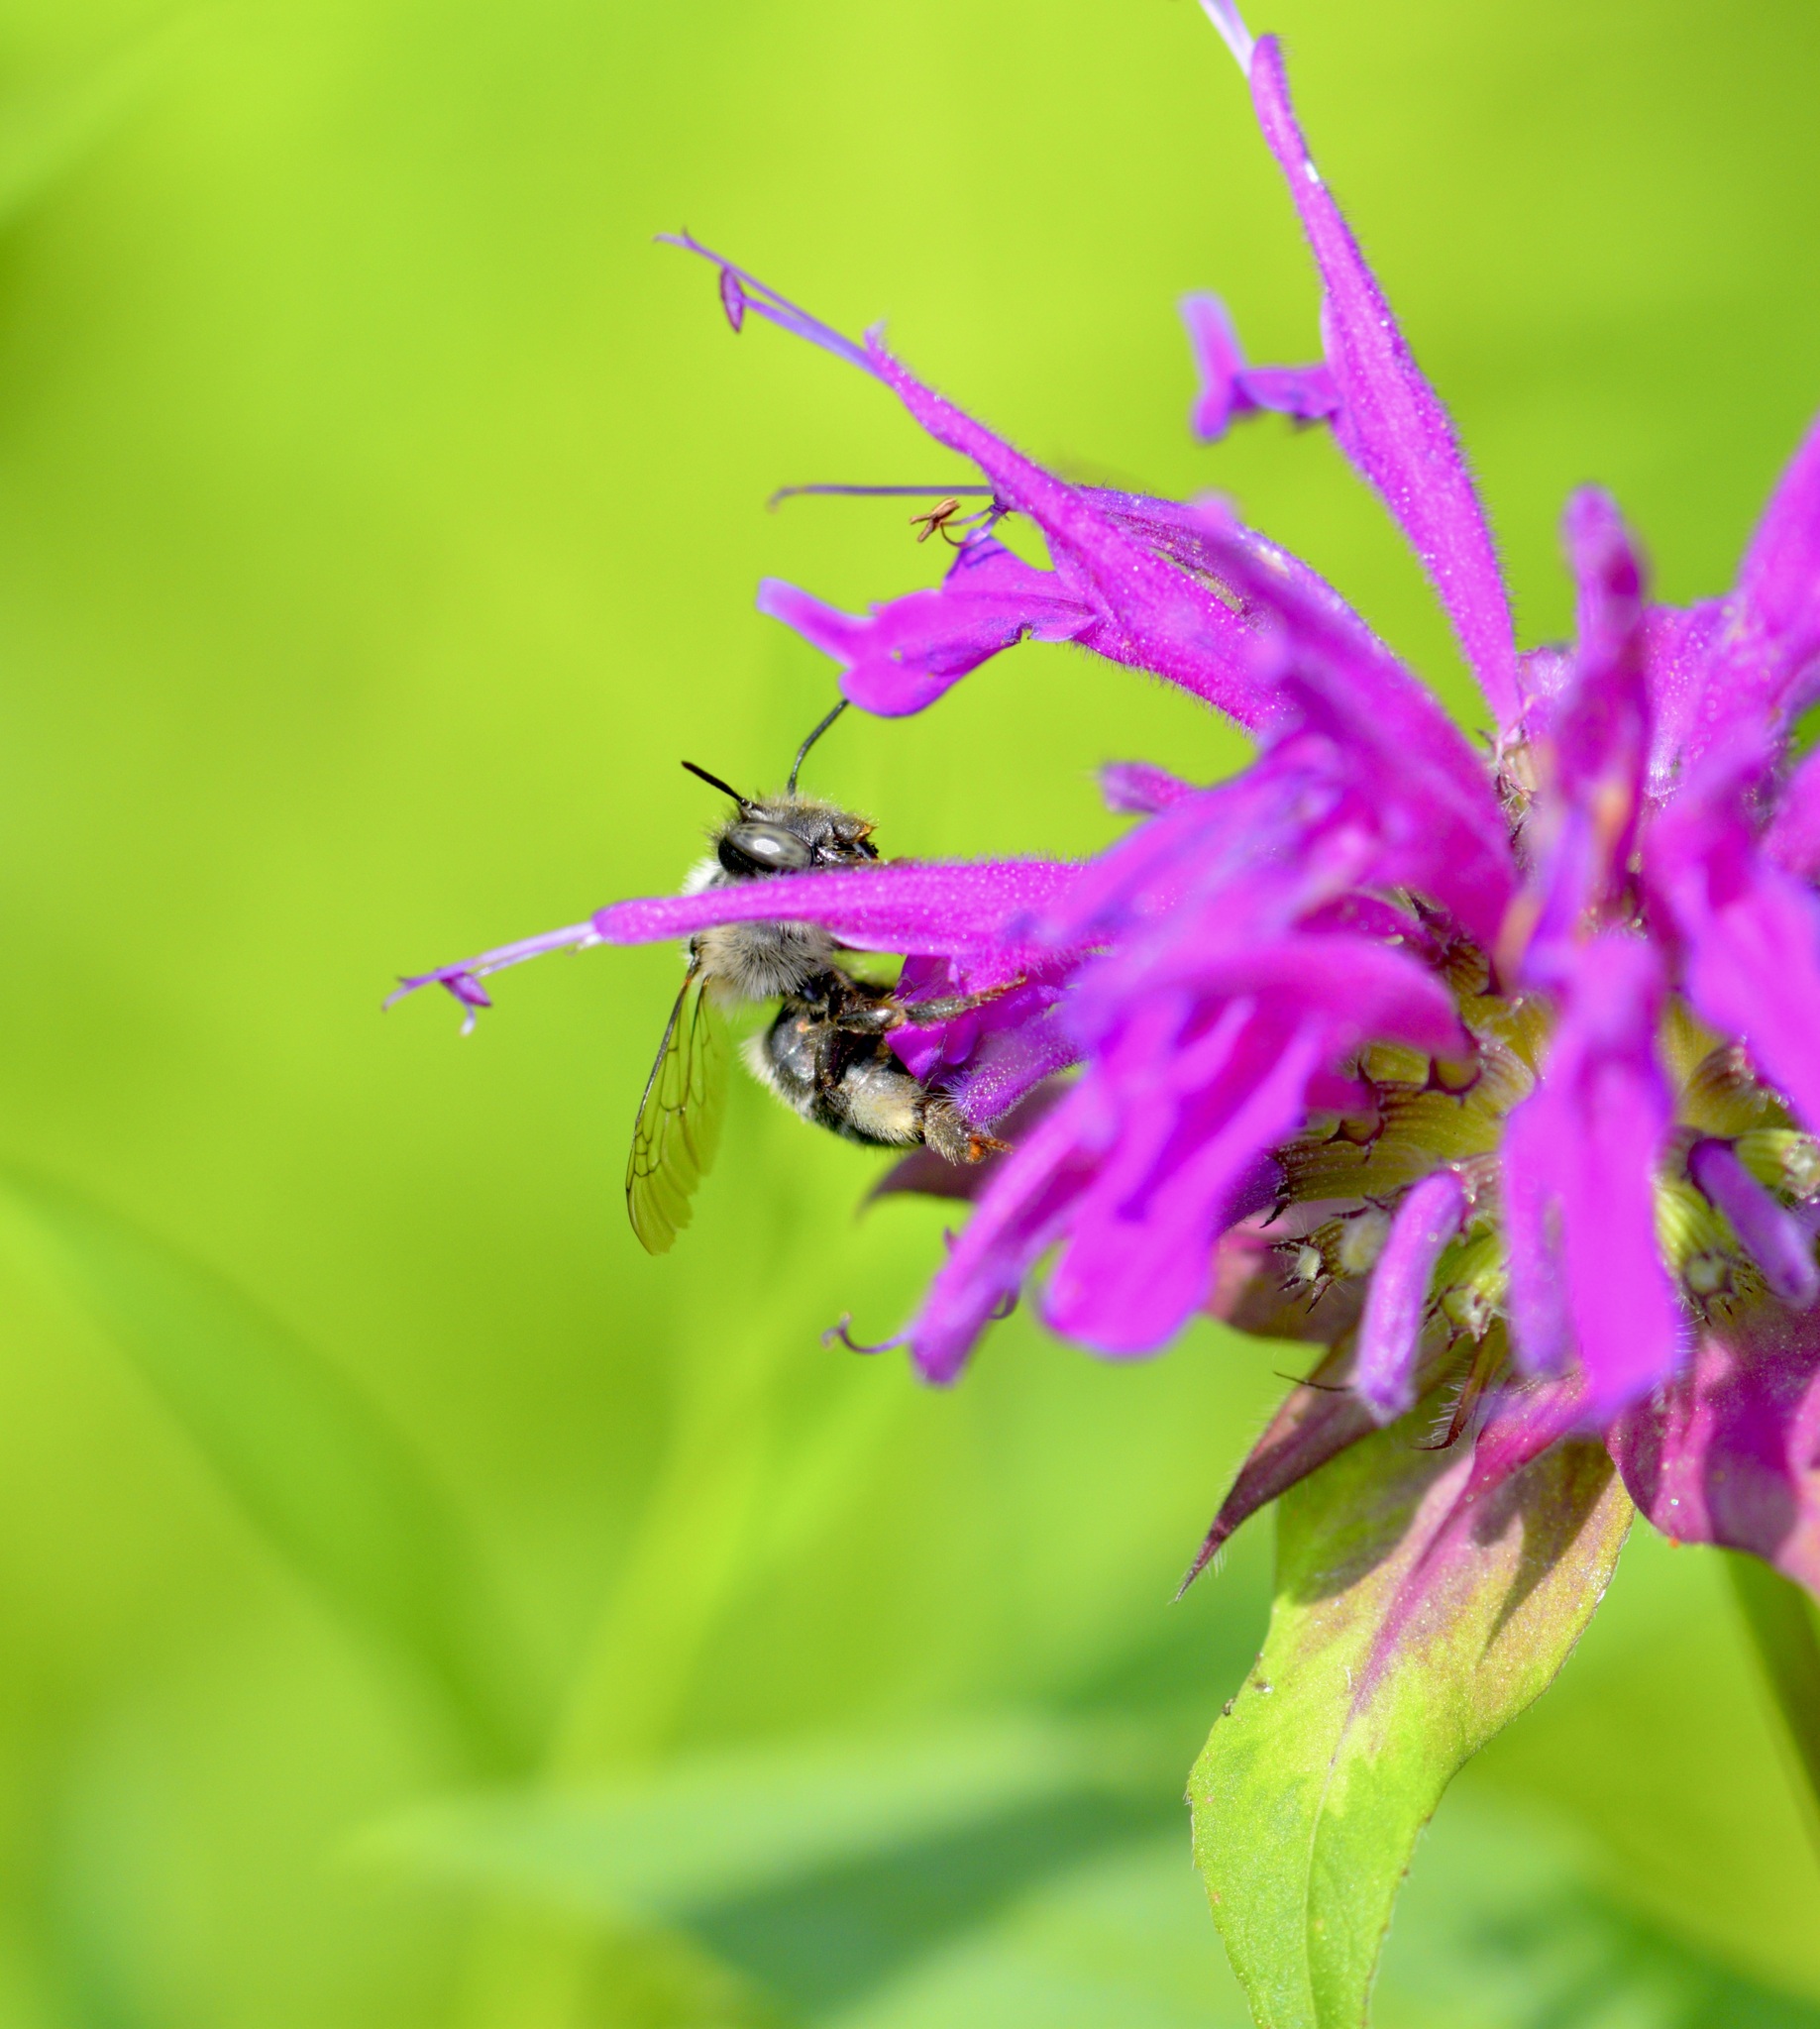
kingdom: Animalia
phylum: Arthropoda
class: Insecta
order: Hymenoptera
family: Apidae
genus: Anthophora
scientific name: Anthophora terminalis
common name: Orange-tipped wood-digger bee
